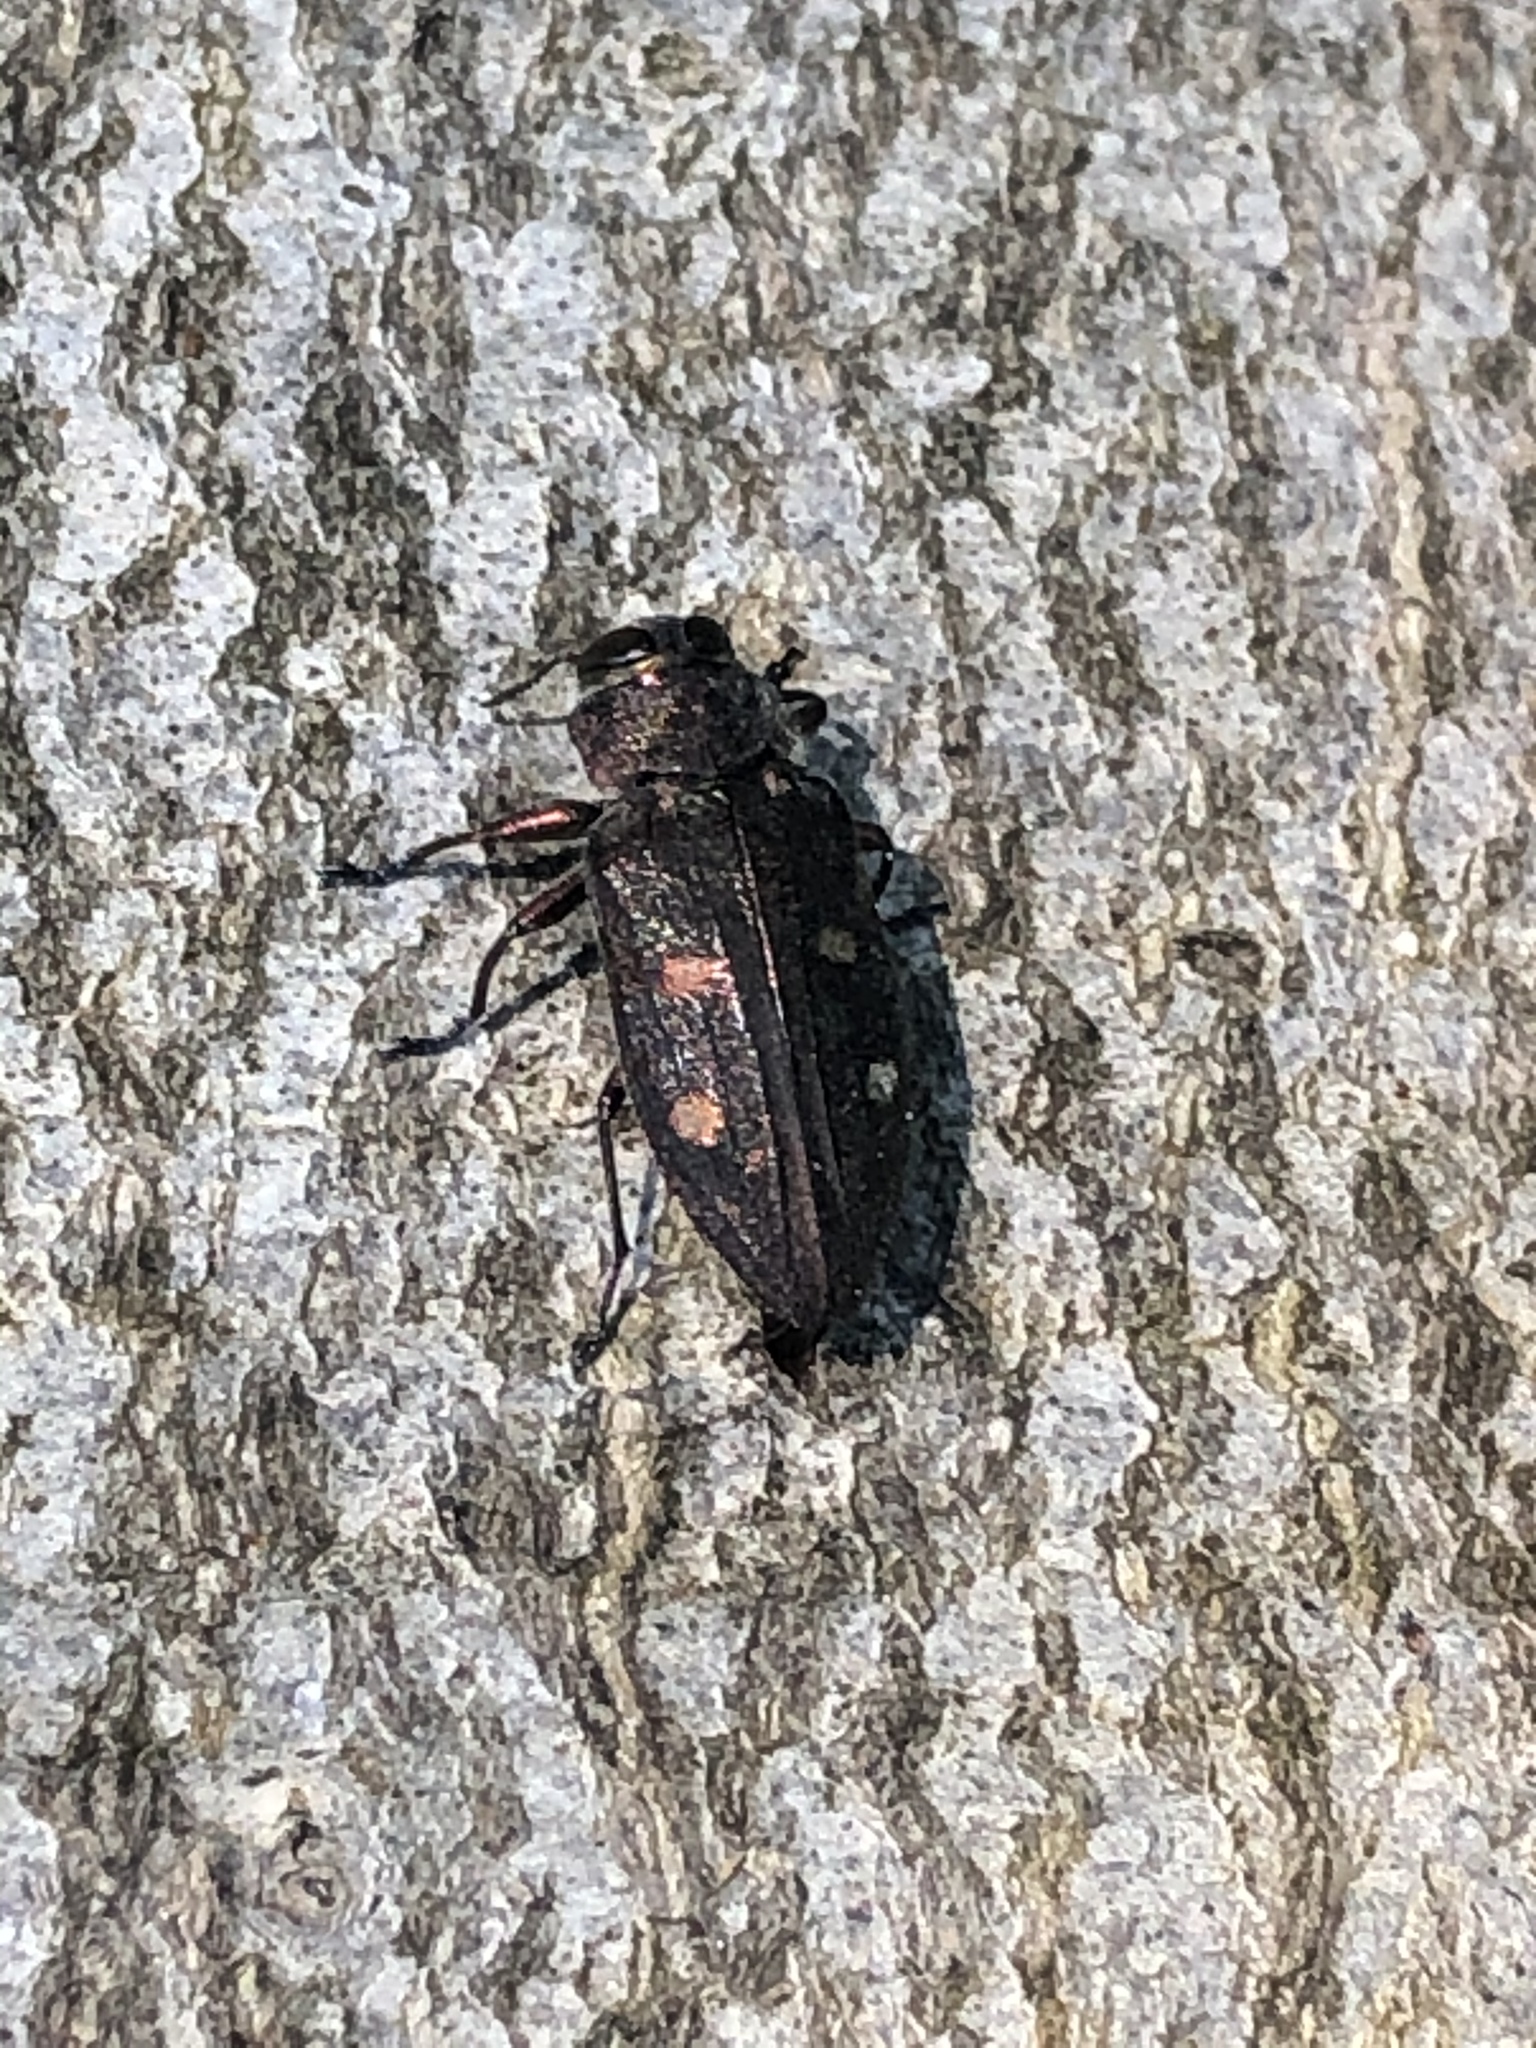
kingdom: Animalia
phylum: Arthropoda
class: Insecta
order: Coleoptera
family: Buprestidae
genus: Chrysobothris
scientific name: Chrysobothris affinis
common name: Beetle
